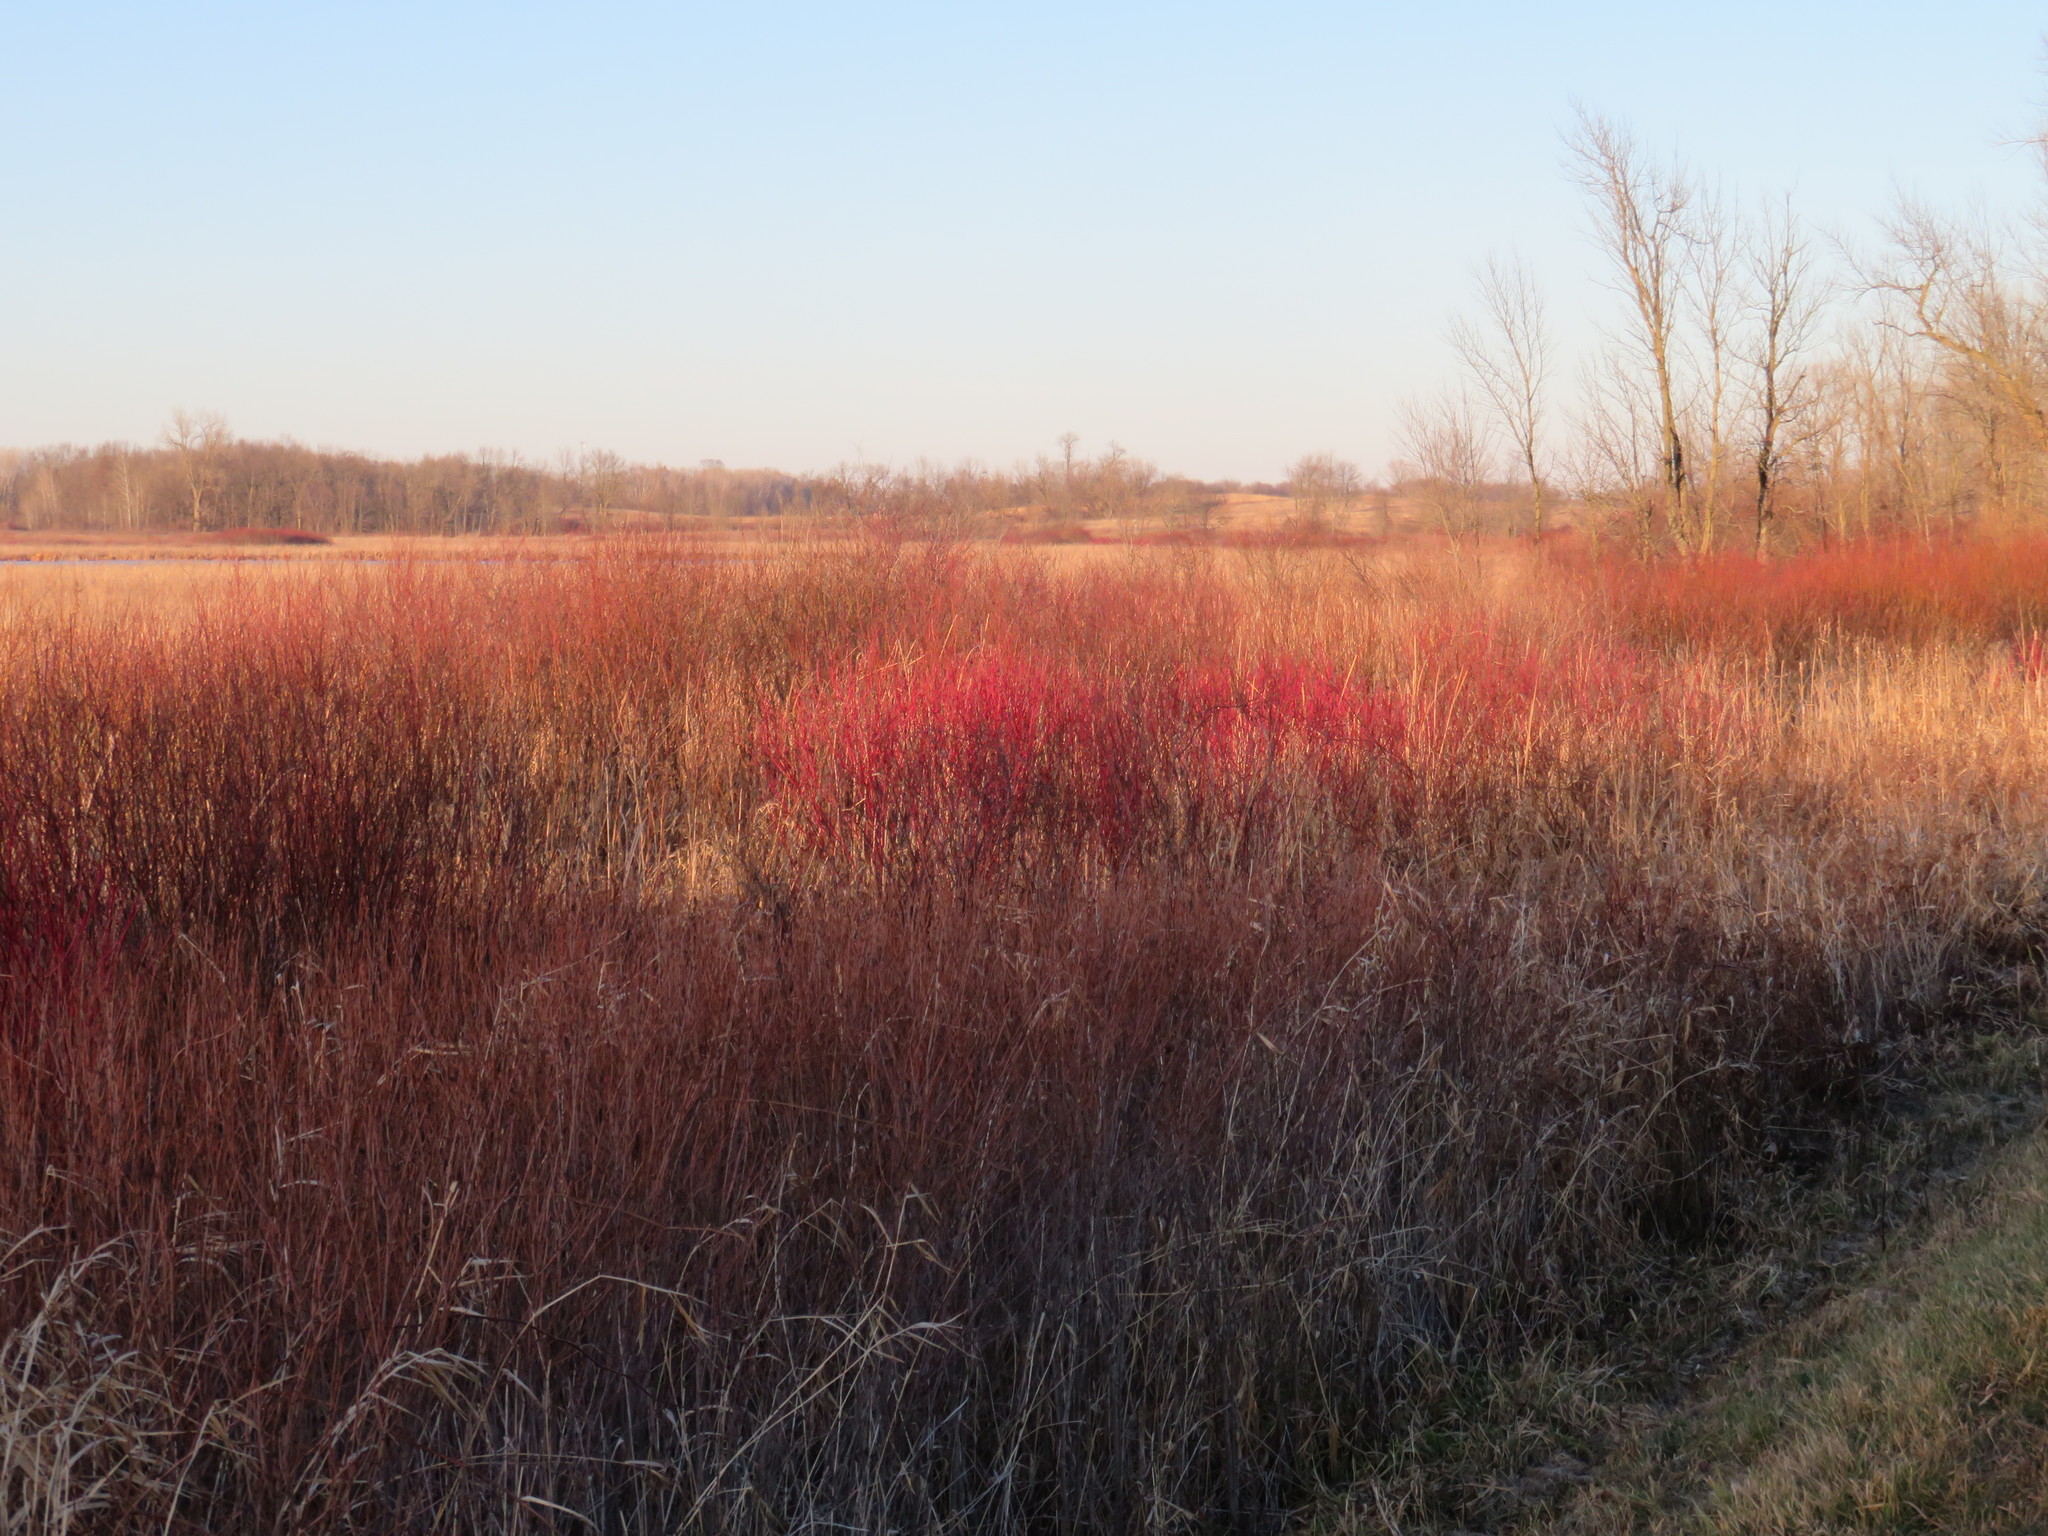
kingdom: Plantae
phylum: Tracheophyta
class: Magnoliopsida
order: Cornales
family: Cornaceae
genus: Cornus
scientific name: Cornus sericea
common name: Red-osier dogwood
